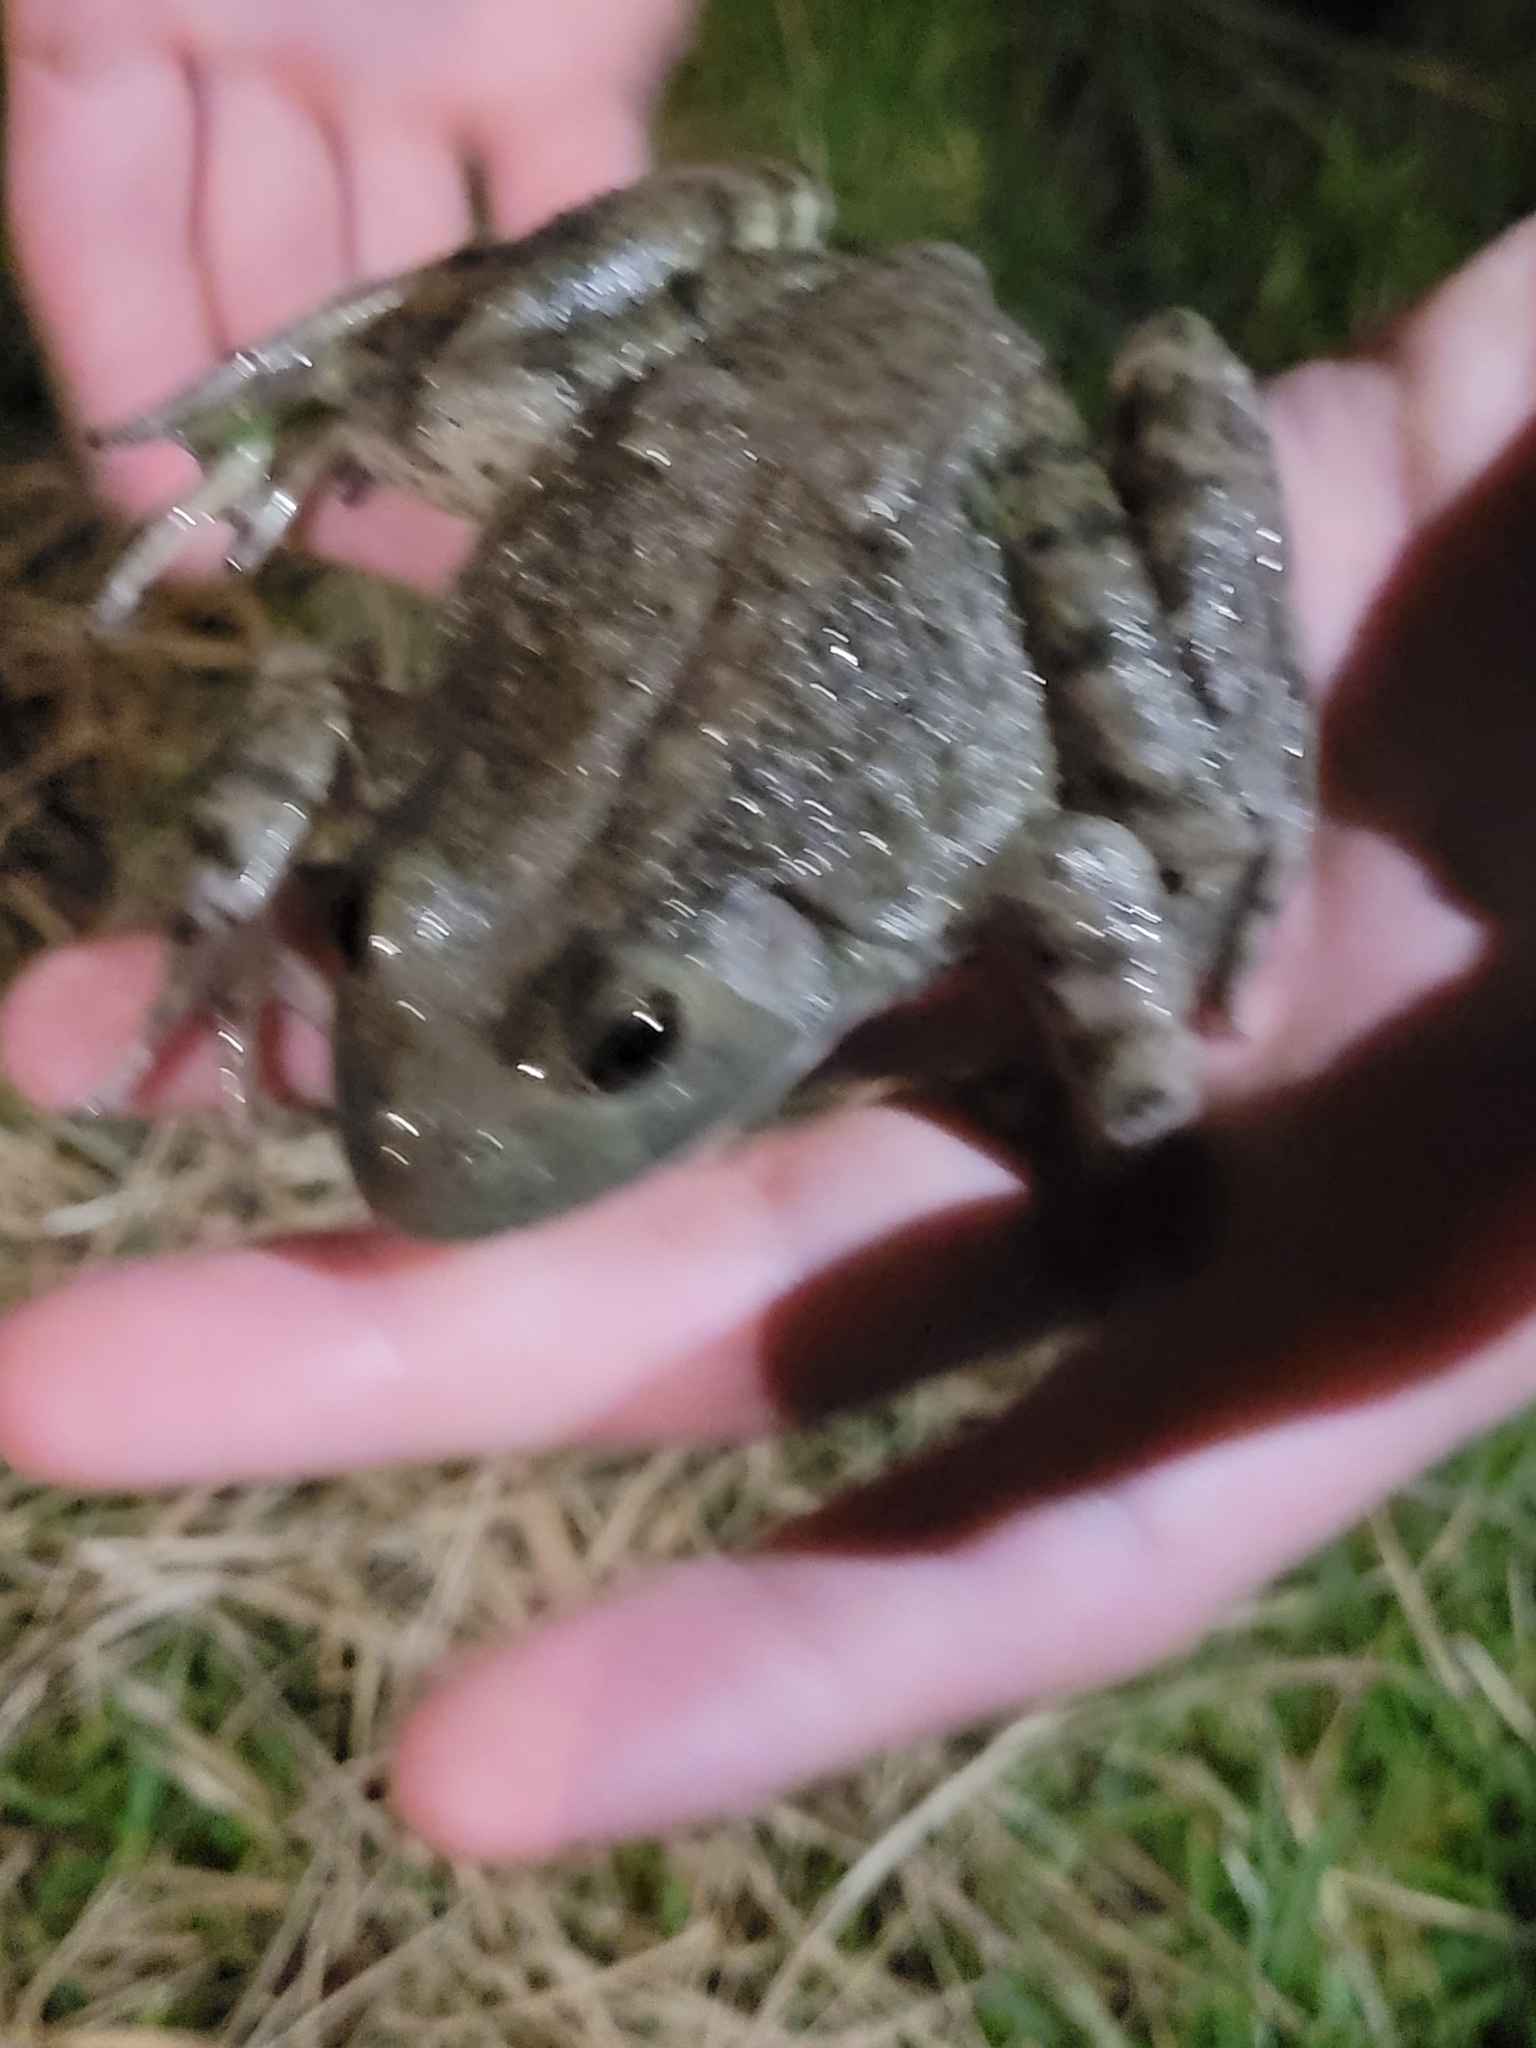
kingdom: Animalia
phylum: Chordata
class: Amphibia
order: Anura
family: Ranidae
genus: Lithobates
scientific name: Lithobates catesbeianus
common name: American bullfrog
